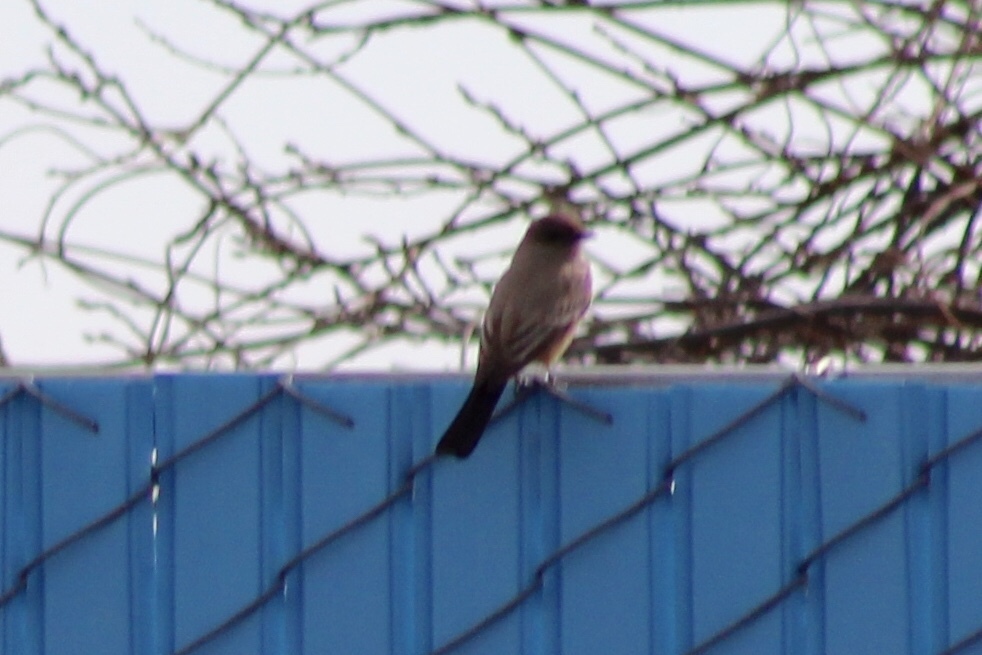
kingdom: Animalia
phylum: Chordata
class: Aves
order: Passeriformes
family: Tyrannidae
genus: Sayornis
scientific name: Sayornis saya
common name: Say's phoebe
